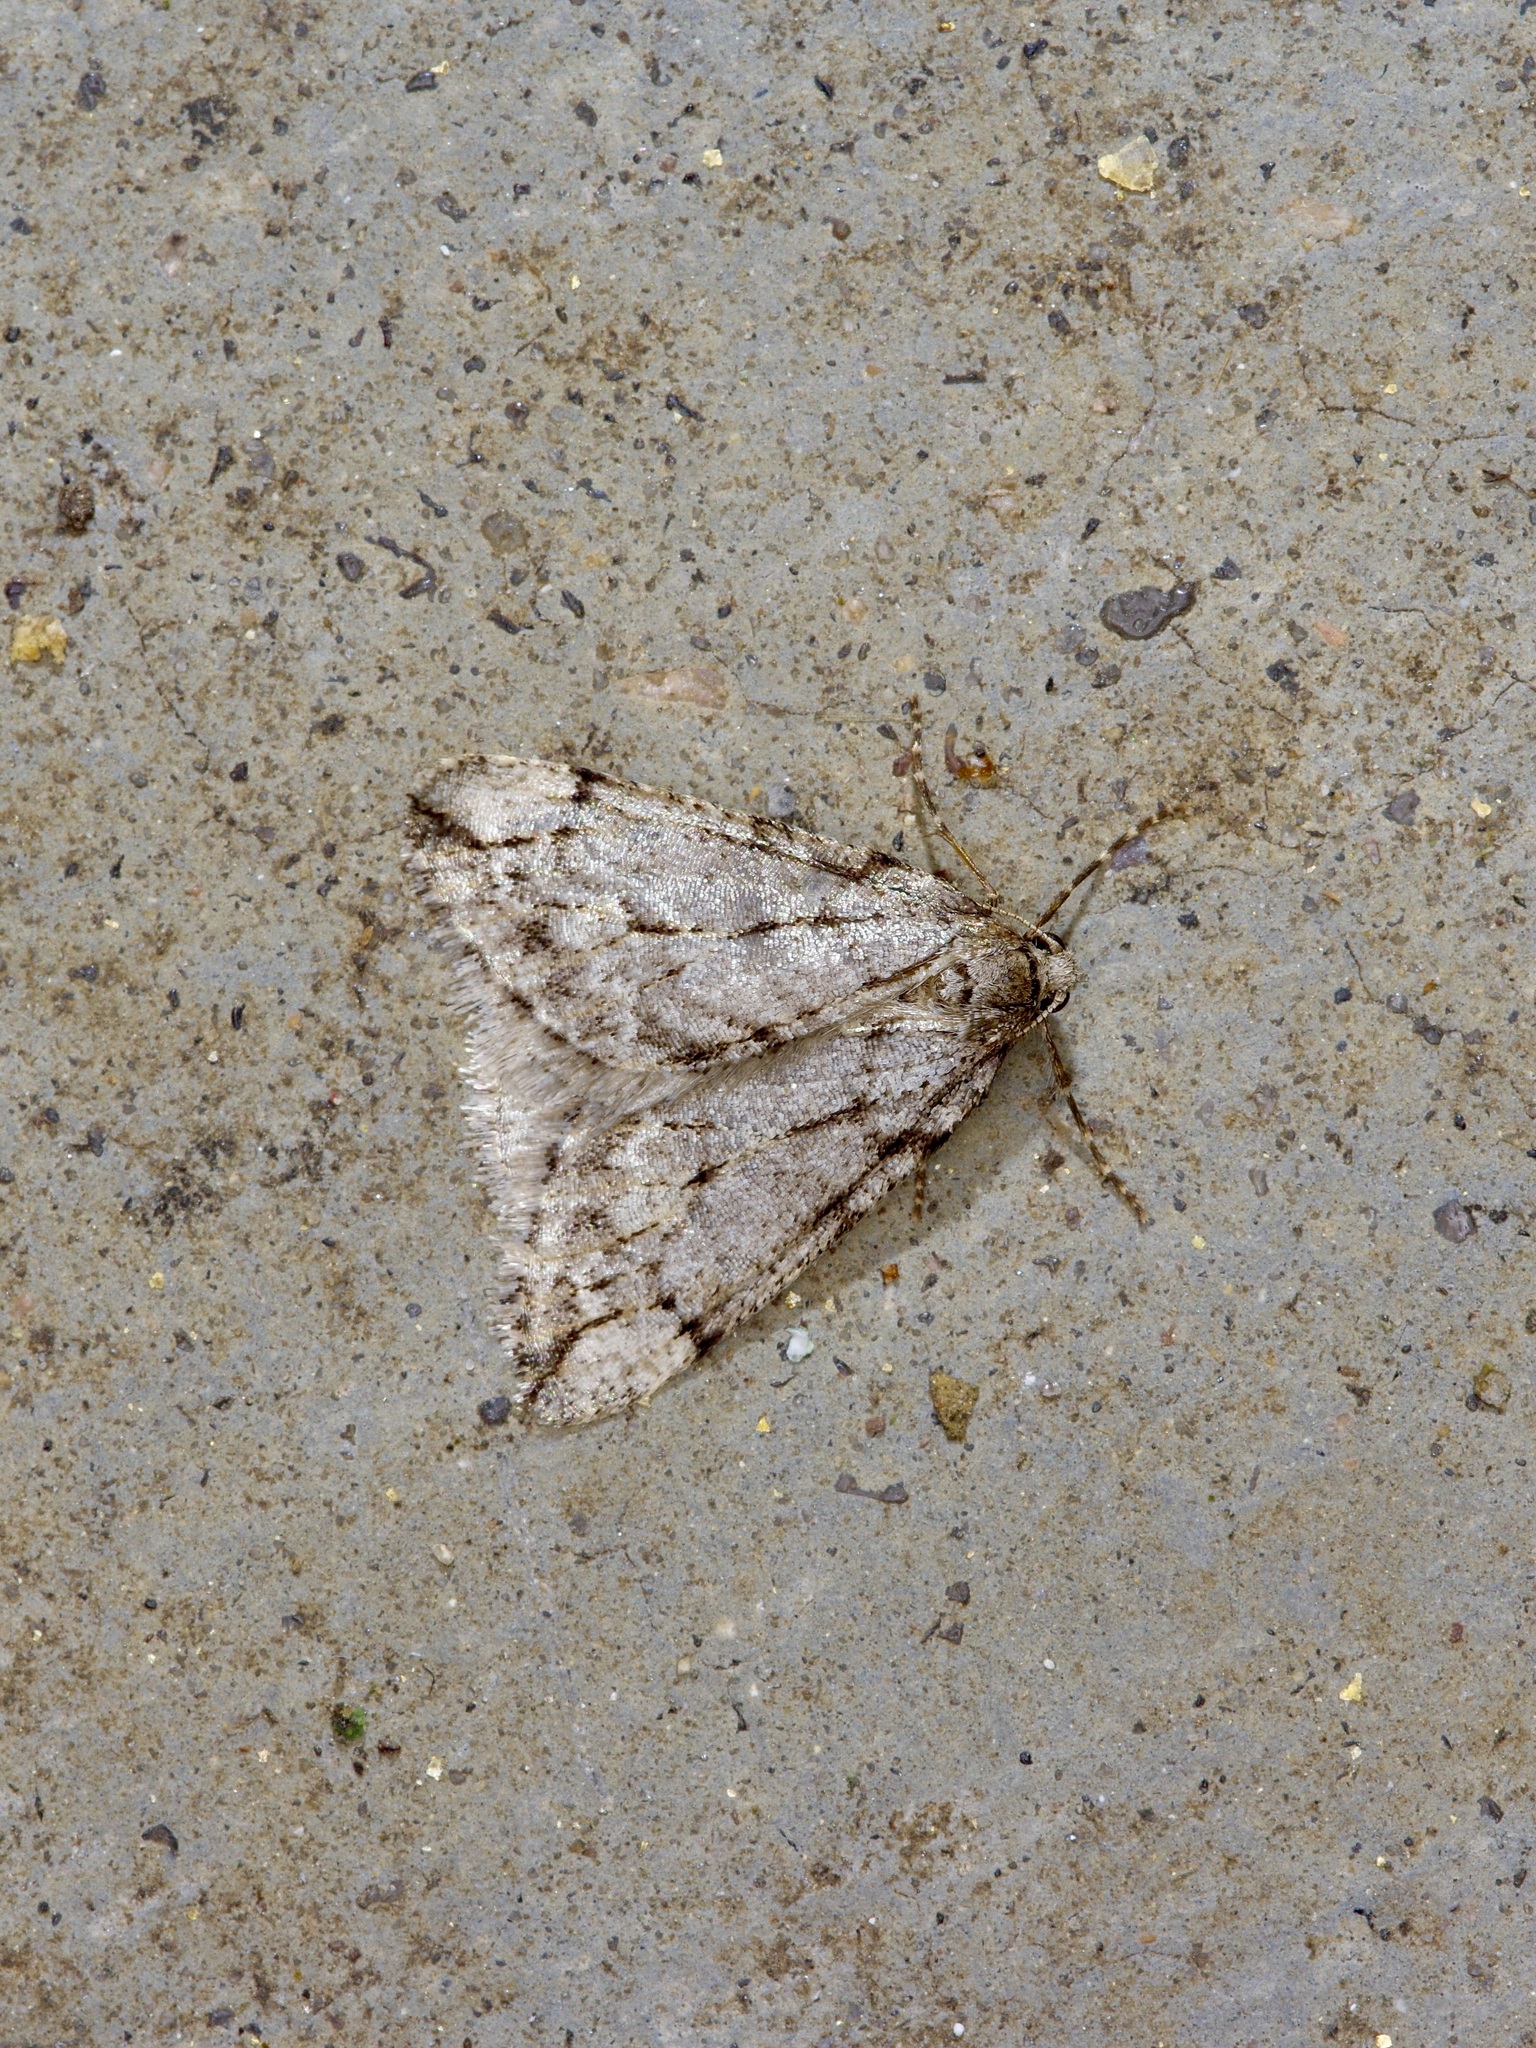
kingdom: Animalia
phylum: Arthropoda
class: Insecta
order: Lepidoptera
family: Geometridae
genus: Paleacrita
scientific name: Paleacrita vernata
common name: Spring cankerworm
